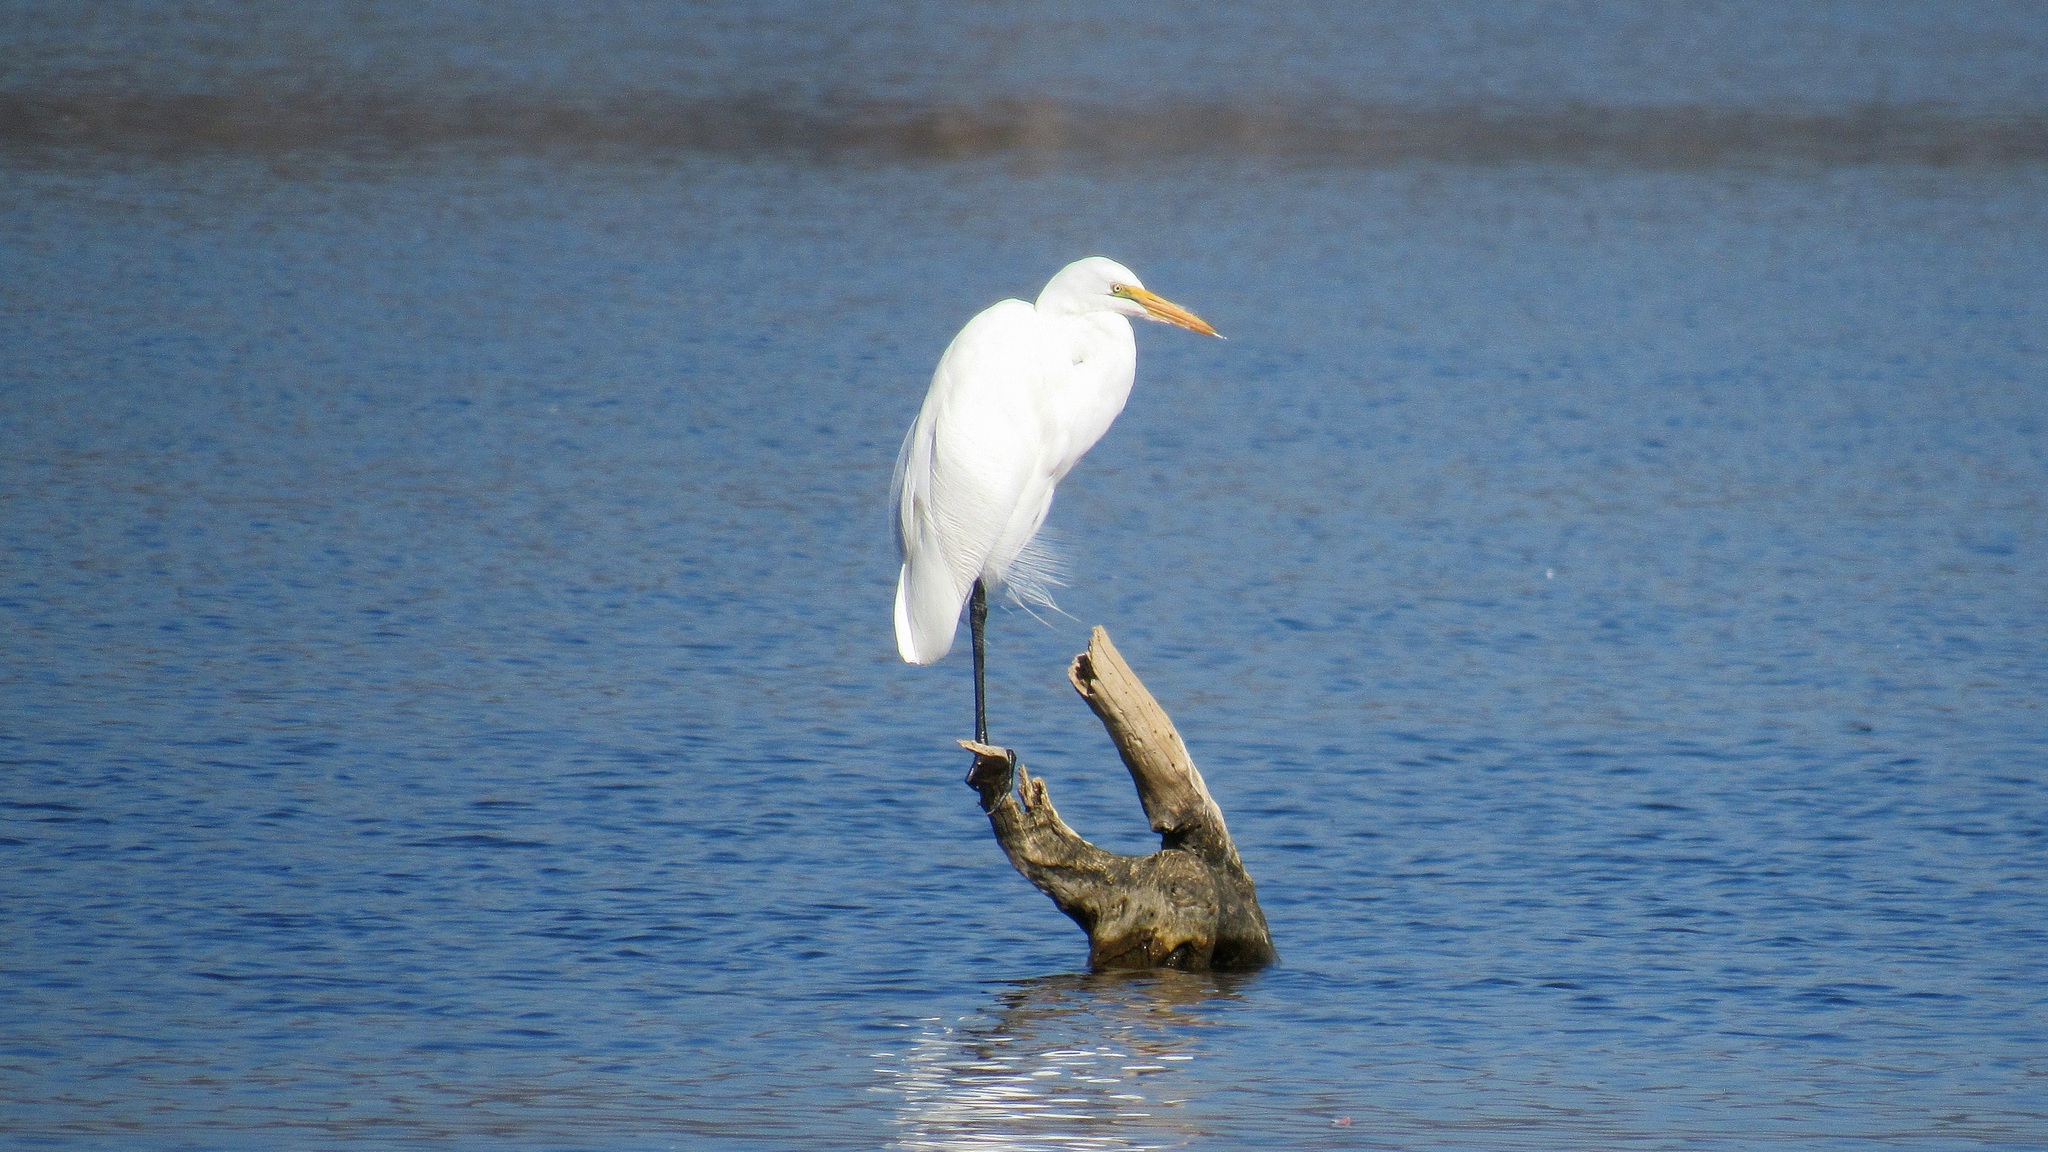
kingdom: Animalia
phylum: Chordata
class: Aves
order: Pelecaniformes
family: Ardeidae
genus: Ardea
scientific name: Ardea alba
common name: Great egret
